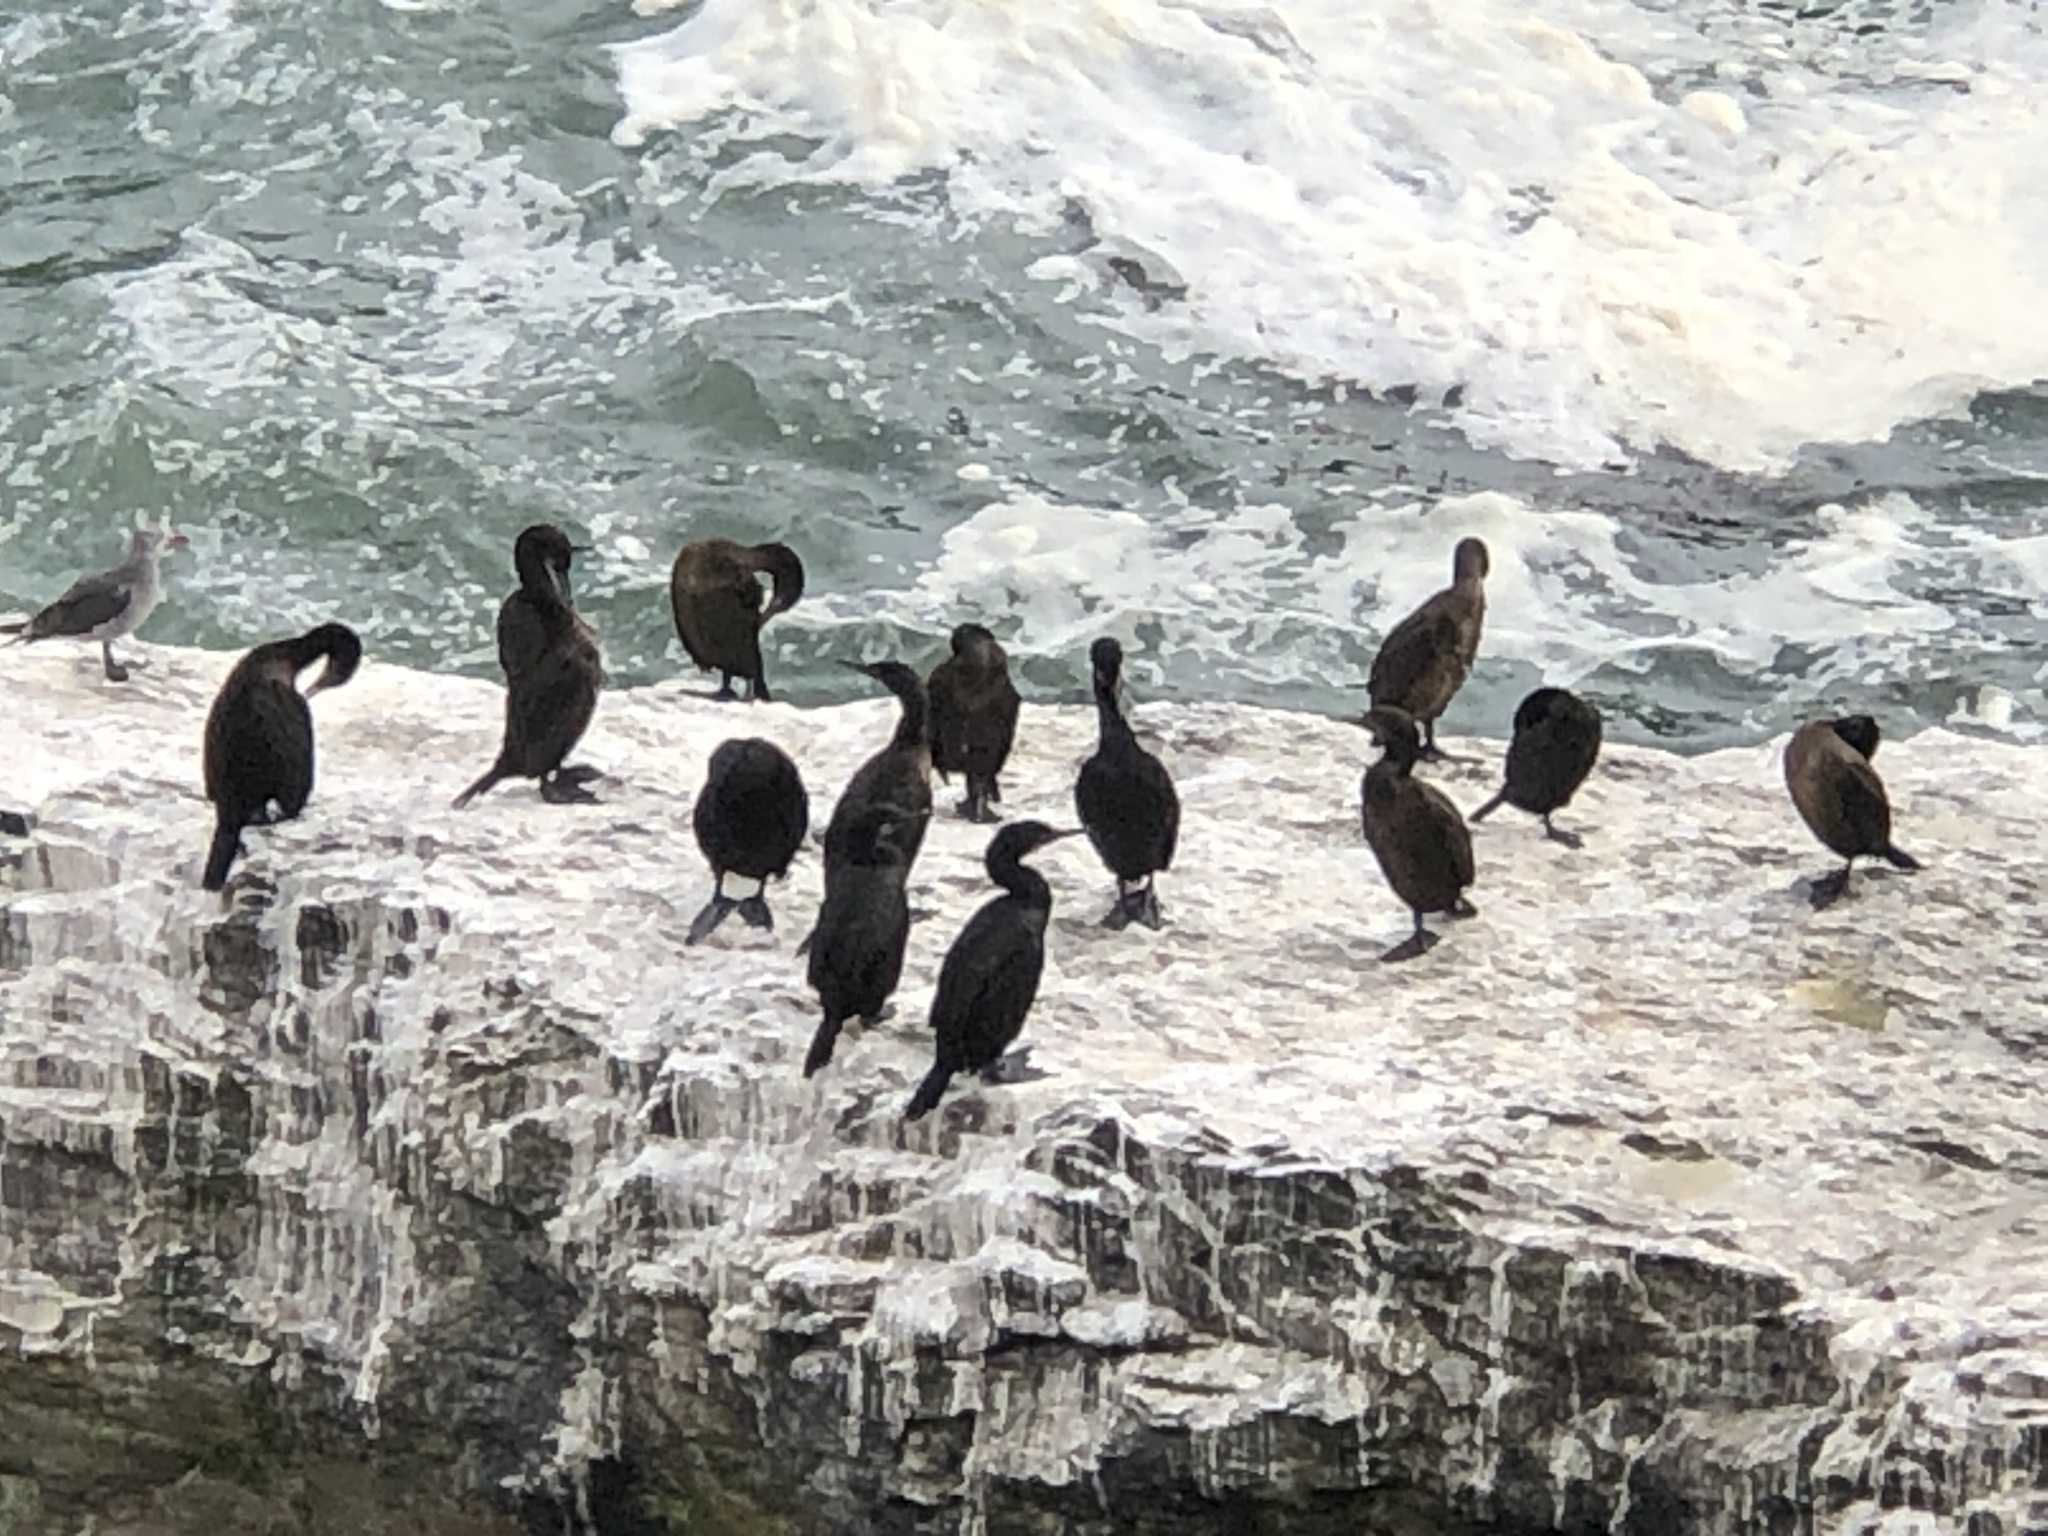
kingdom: Animalia
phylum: Chordata
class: Aves
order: Suliformes
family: Phalacrocoracidae
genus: Urile
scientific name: Urile penicillatus
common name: Brandt's cormorant
